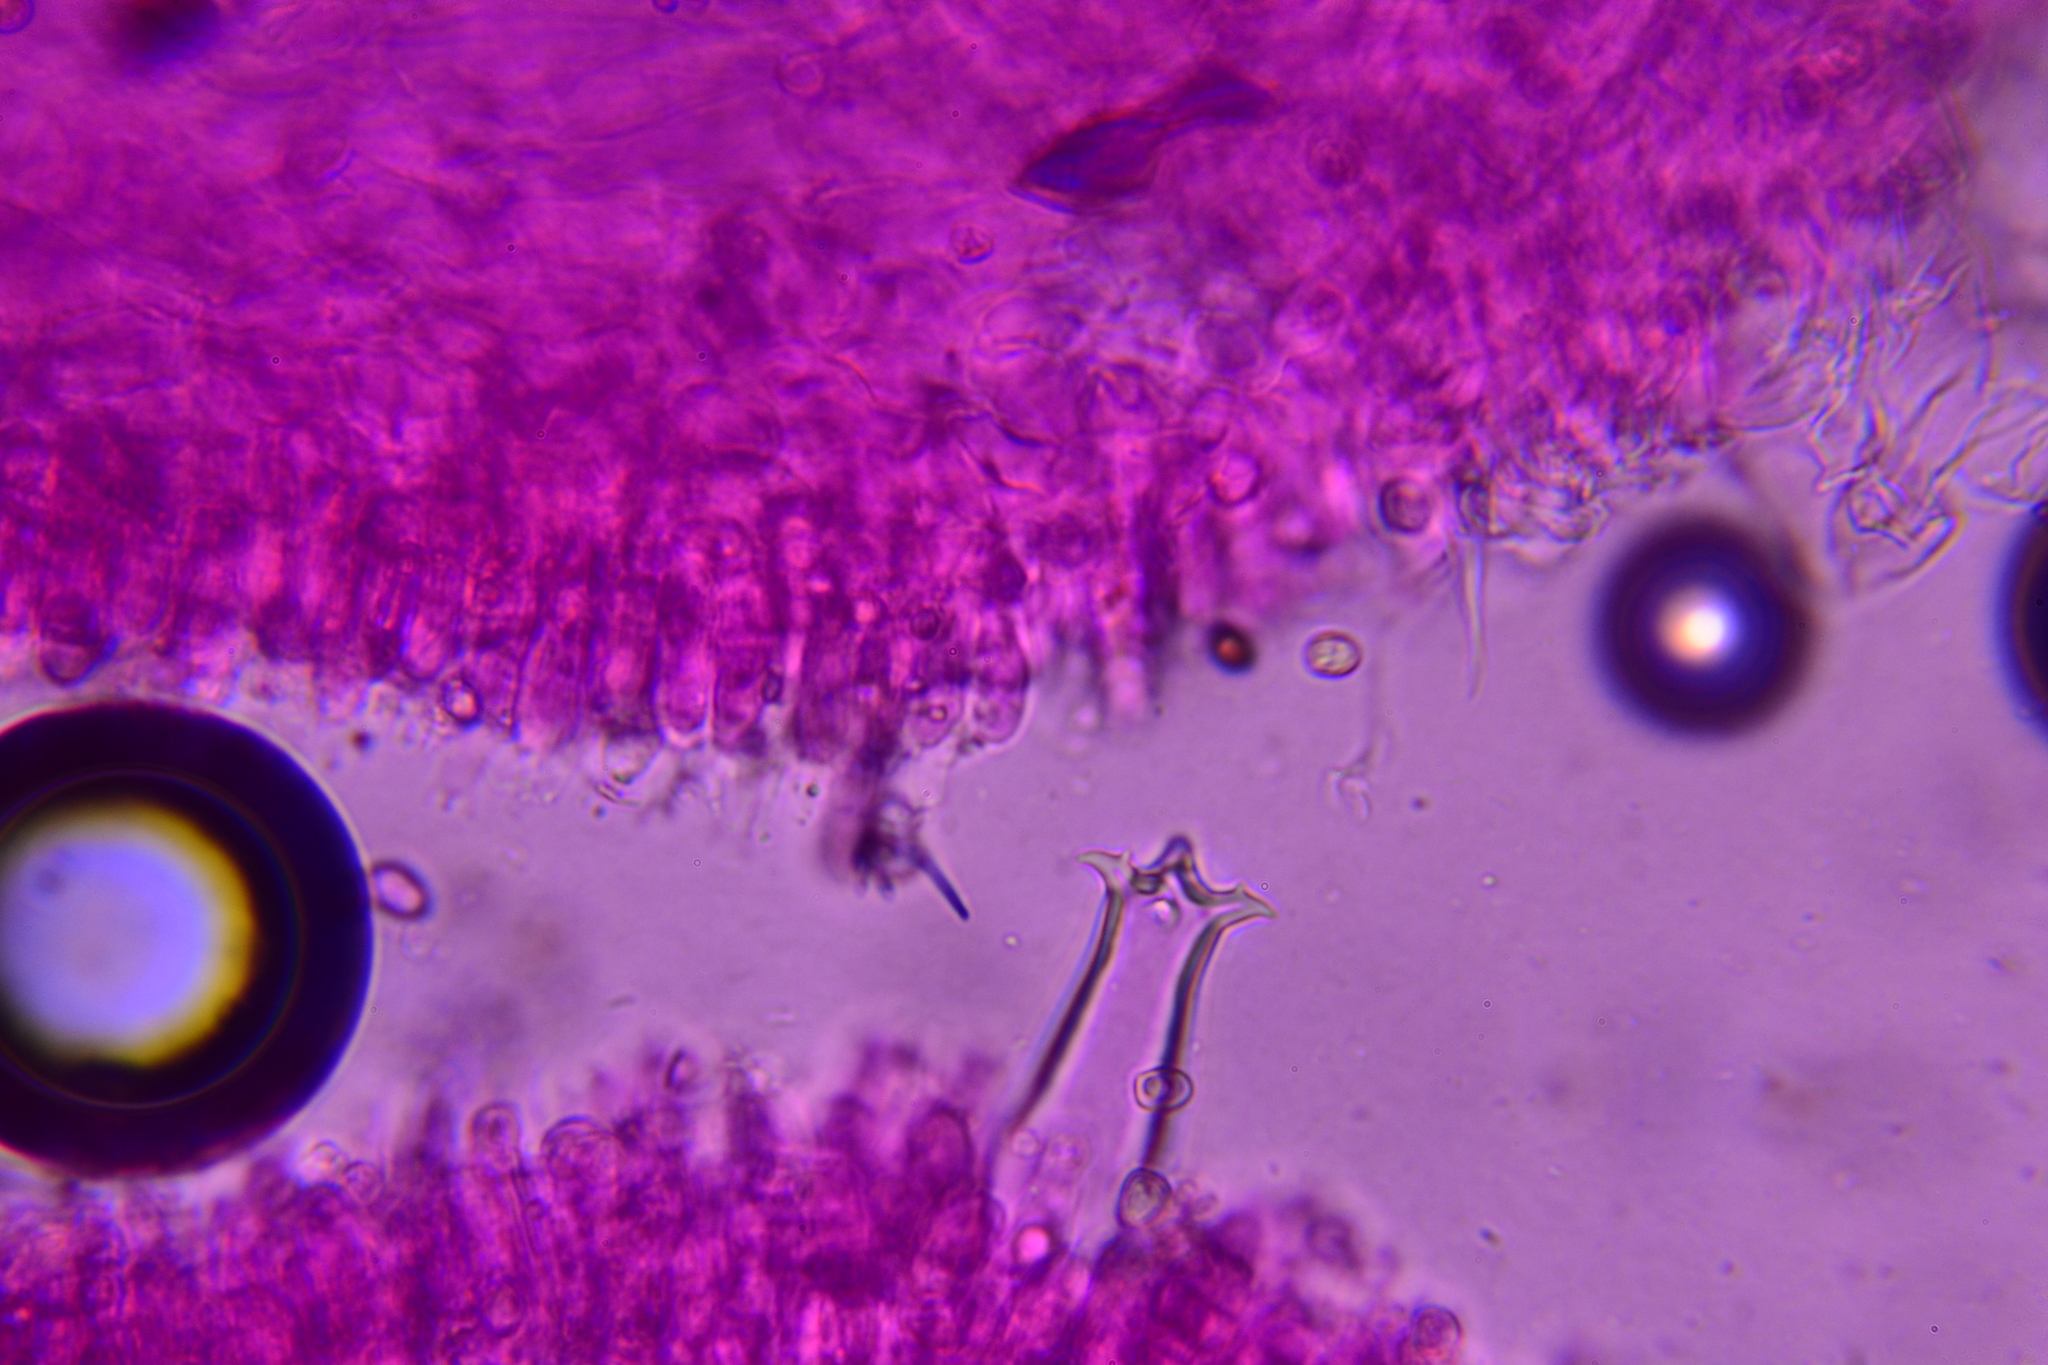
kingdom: Fungi
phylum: Basidiomycota
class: Agaricomycetes
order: Agaricales
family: Pluteaceae
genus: Pluteus
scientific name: Pluteus hongoi
